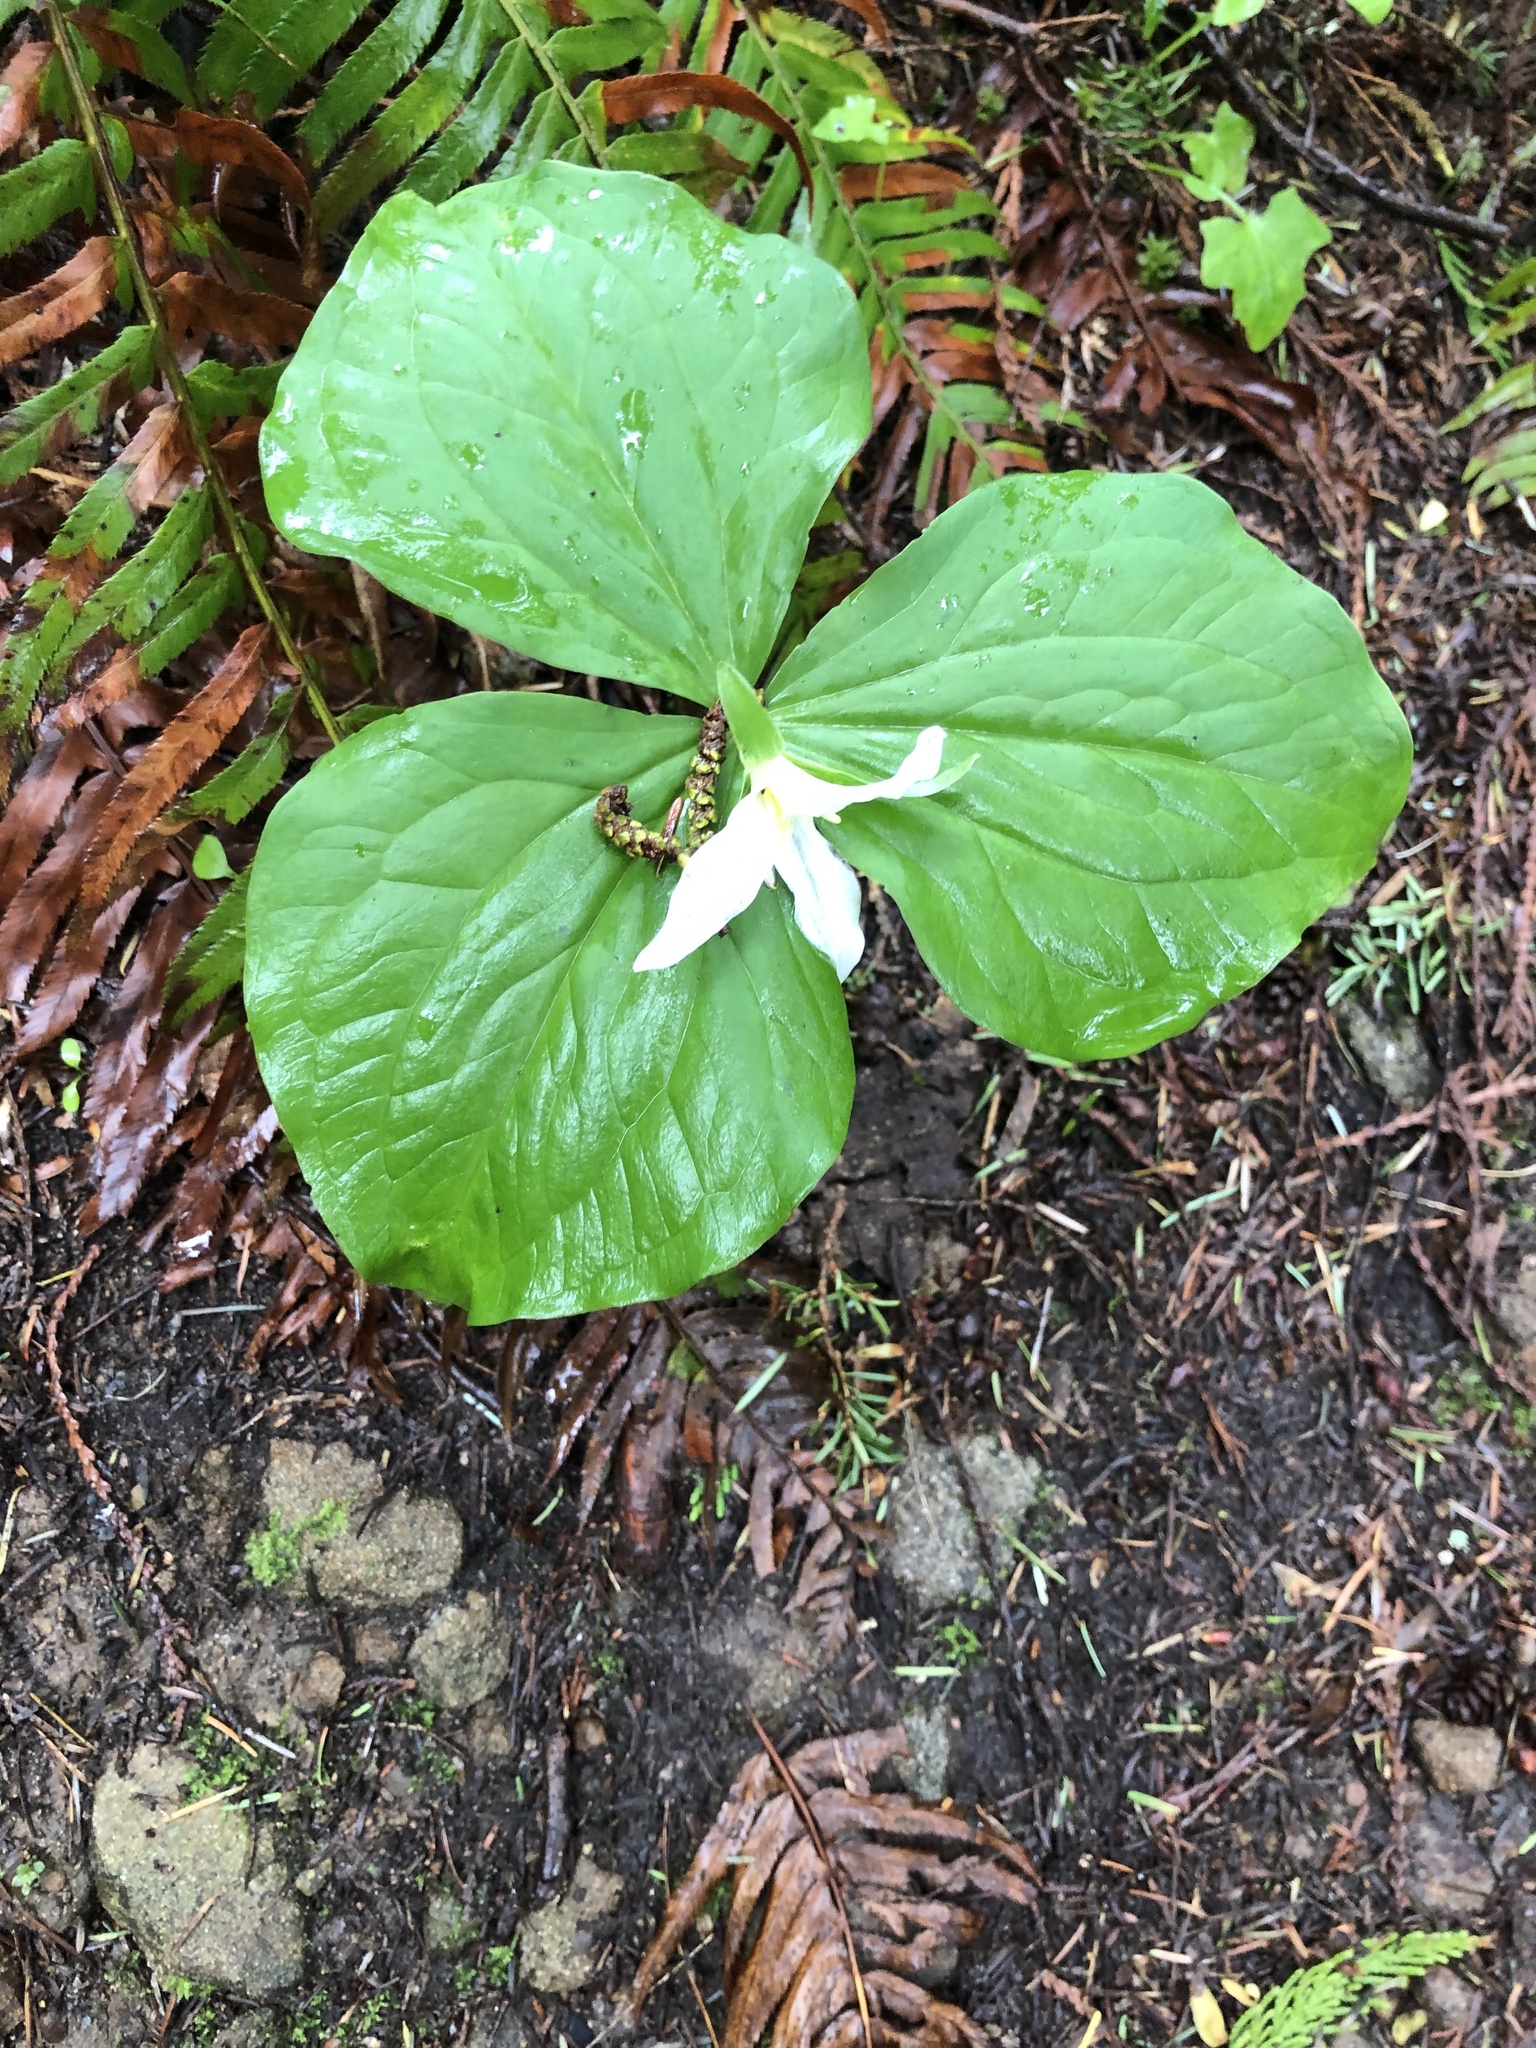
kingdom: Plantae
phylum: Tracheophyta
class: Liliopsida
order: Liliales
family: Melanthiaceae
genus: Trillium
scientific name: Trillium ovatum
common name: Pacific trillium
